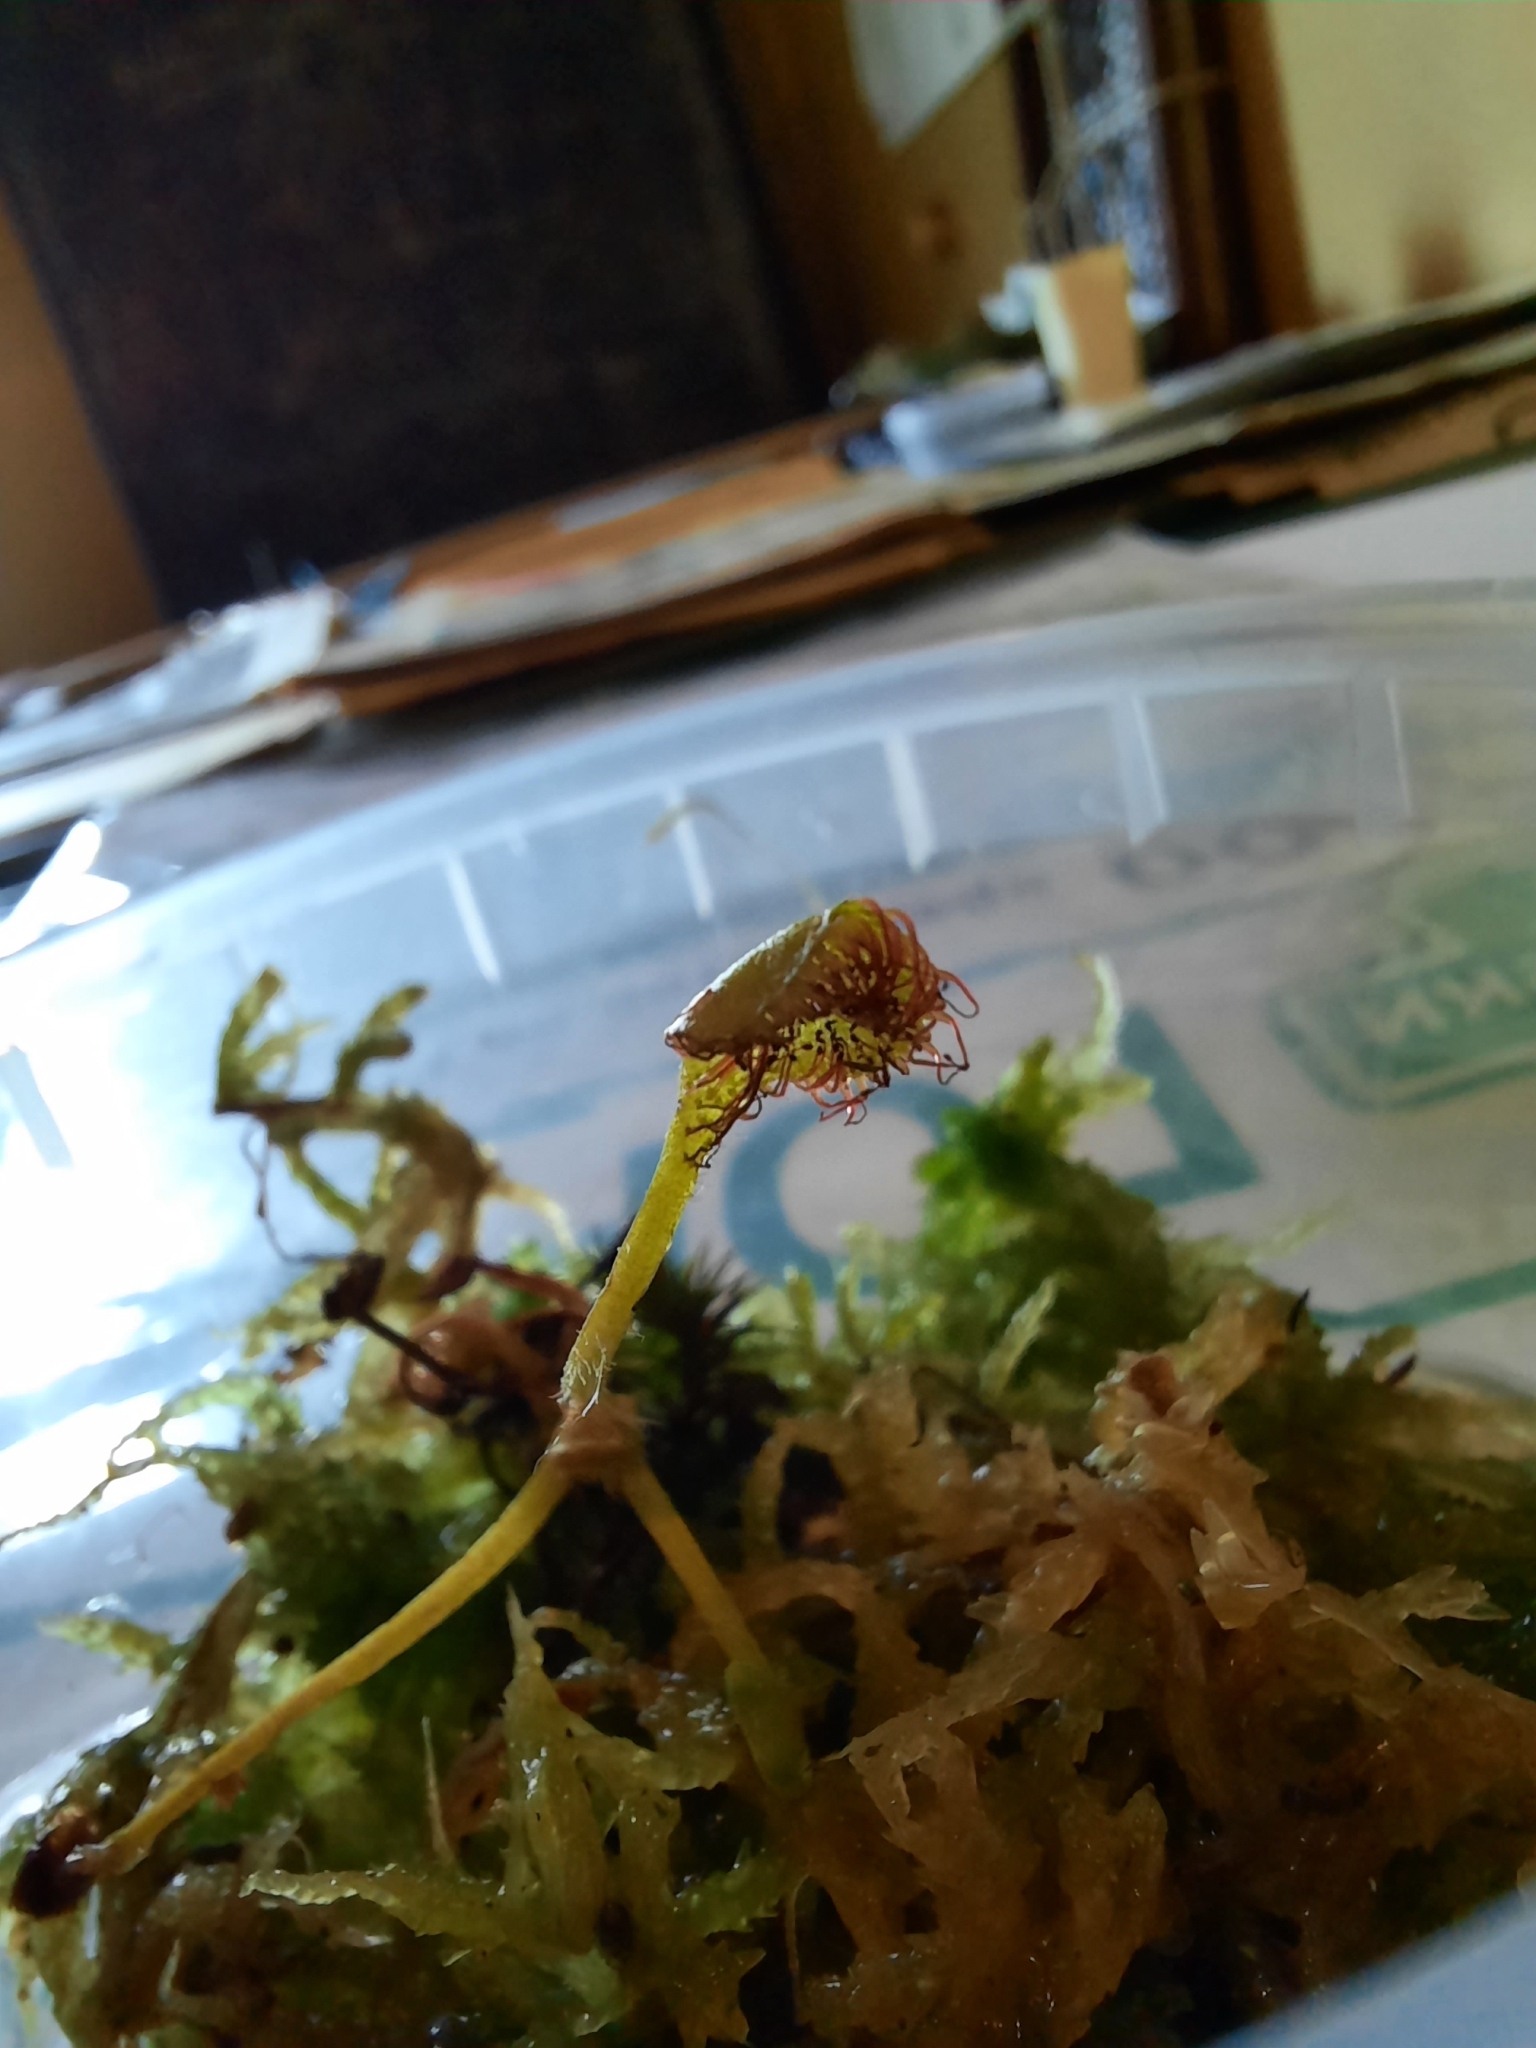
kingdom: Plantae
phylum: Tracheophyta
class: Magnoliopsida
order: Caryophyllales
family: Droseraceae
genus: Drosera
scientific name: Drosera rotundifolia
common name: Round-leaved sundew
